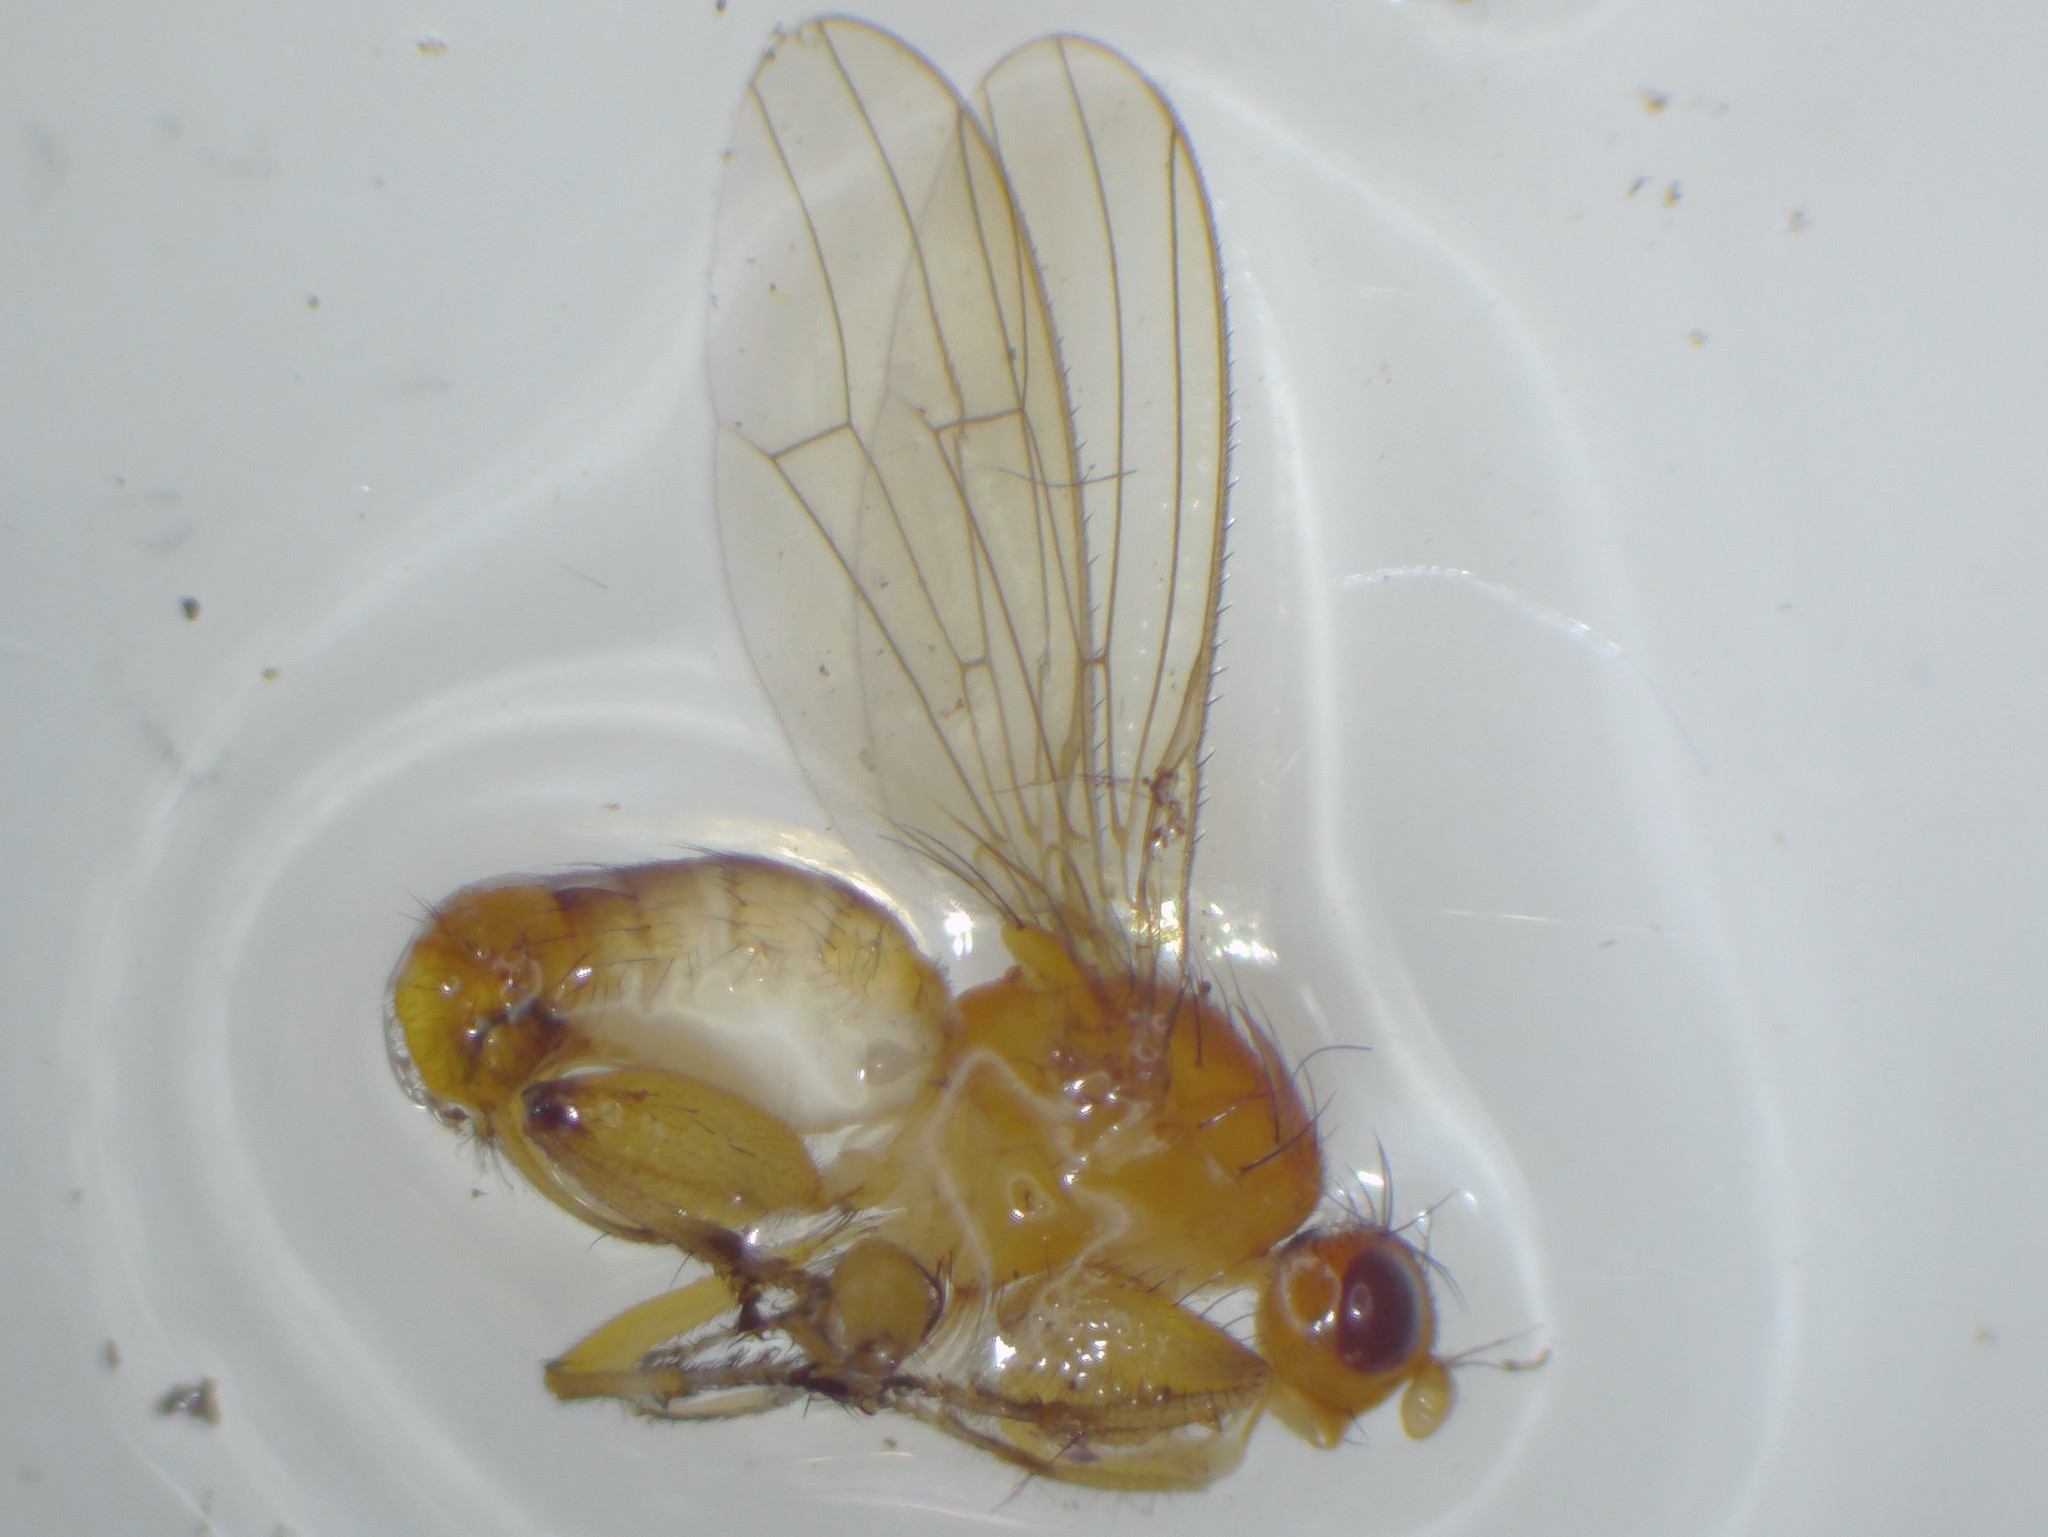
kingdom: Animalia
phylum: Arthropoda
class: Insecta
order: Diptera
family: Heleomyzidae
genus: Suillia
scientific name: Suillia convergens
